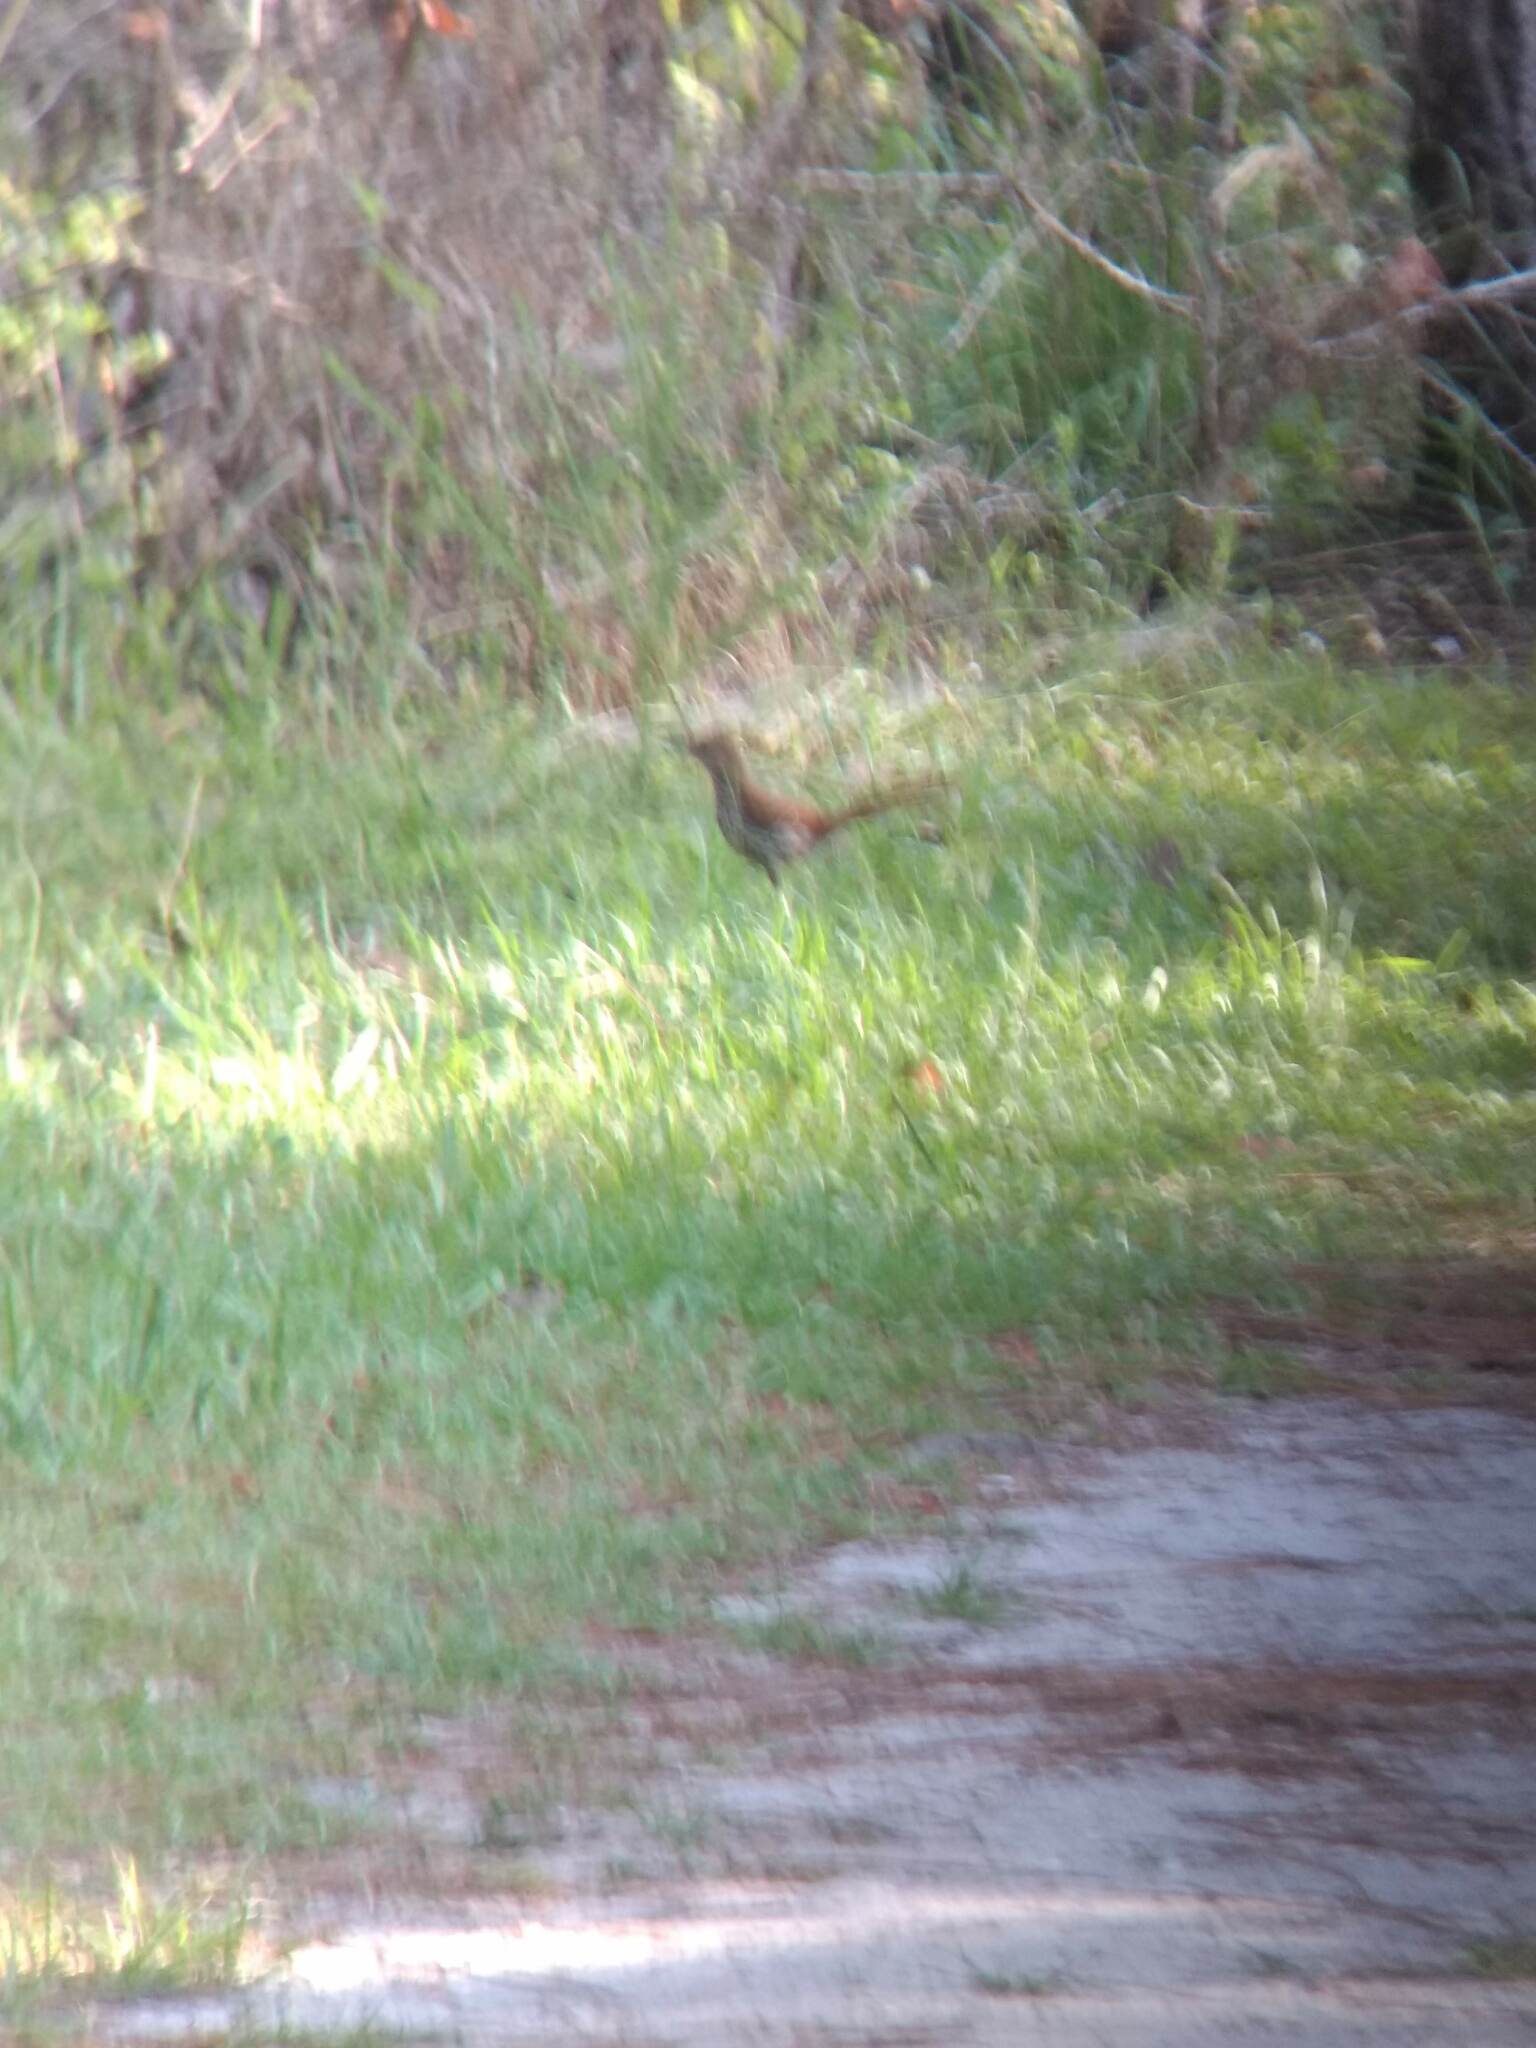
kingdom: Animalia
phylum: Chordata
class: Aves
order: Passeriformes
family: Mimidae
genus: Toxostoma
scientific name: Toxostoma rufum
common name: Brown thrasher
